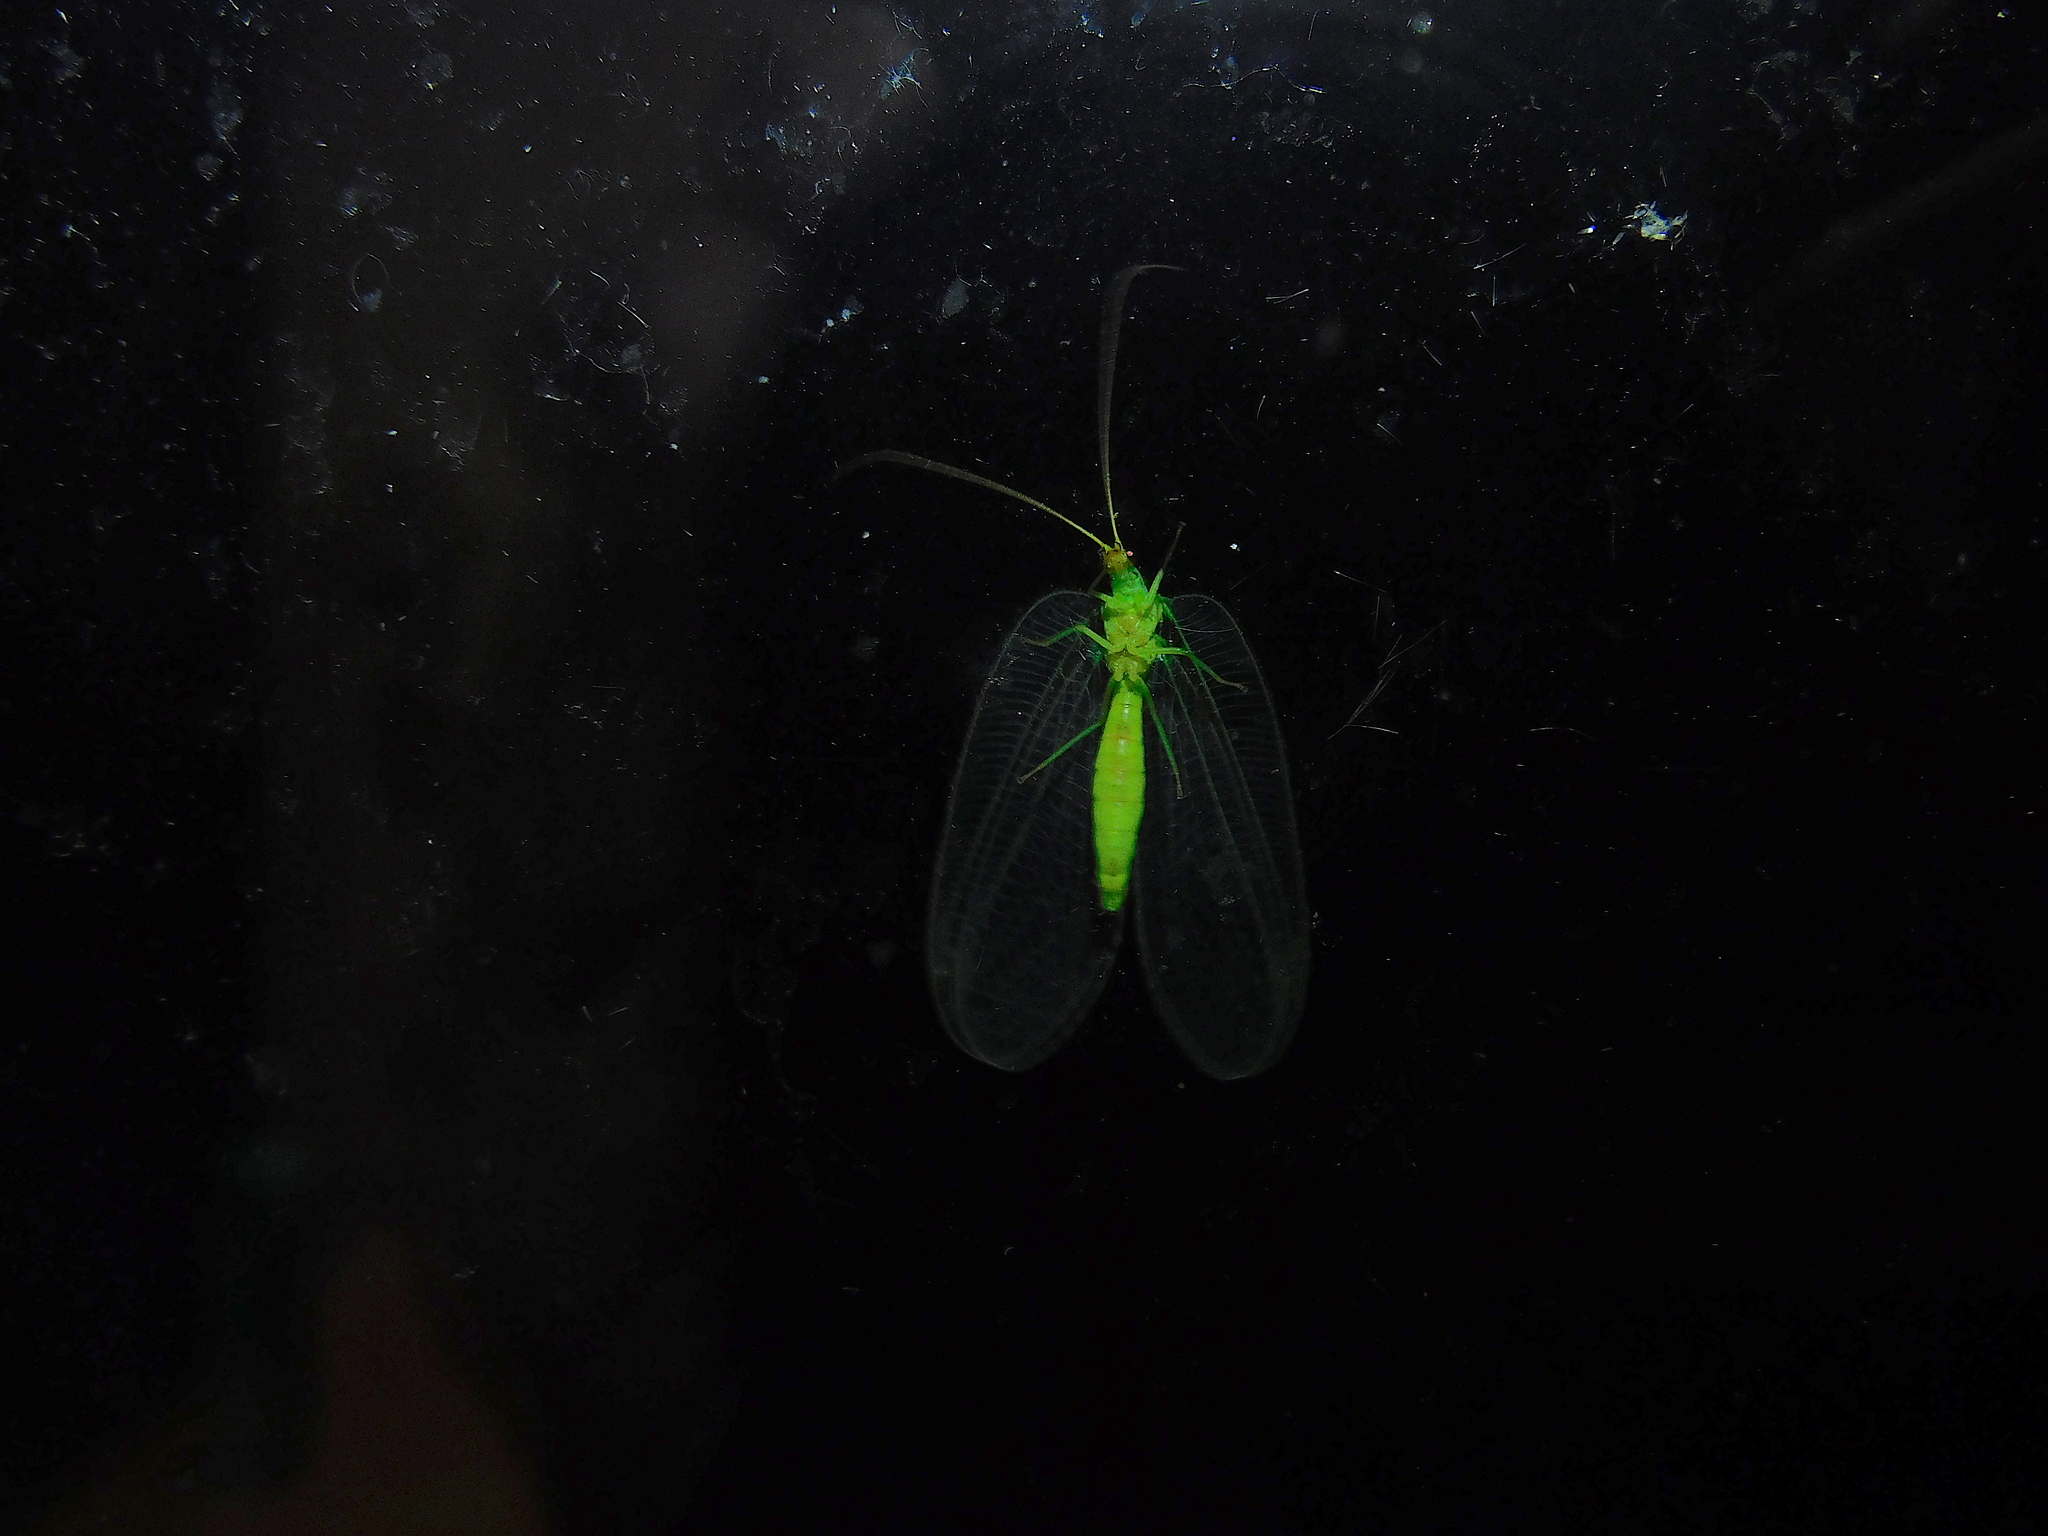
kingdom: Animalia
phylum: Arthropoda
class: Insecta
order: Neuroptera
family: Chrysopidae
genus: Nothancyla
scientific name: Nothancyla verreauxi
